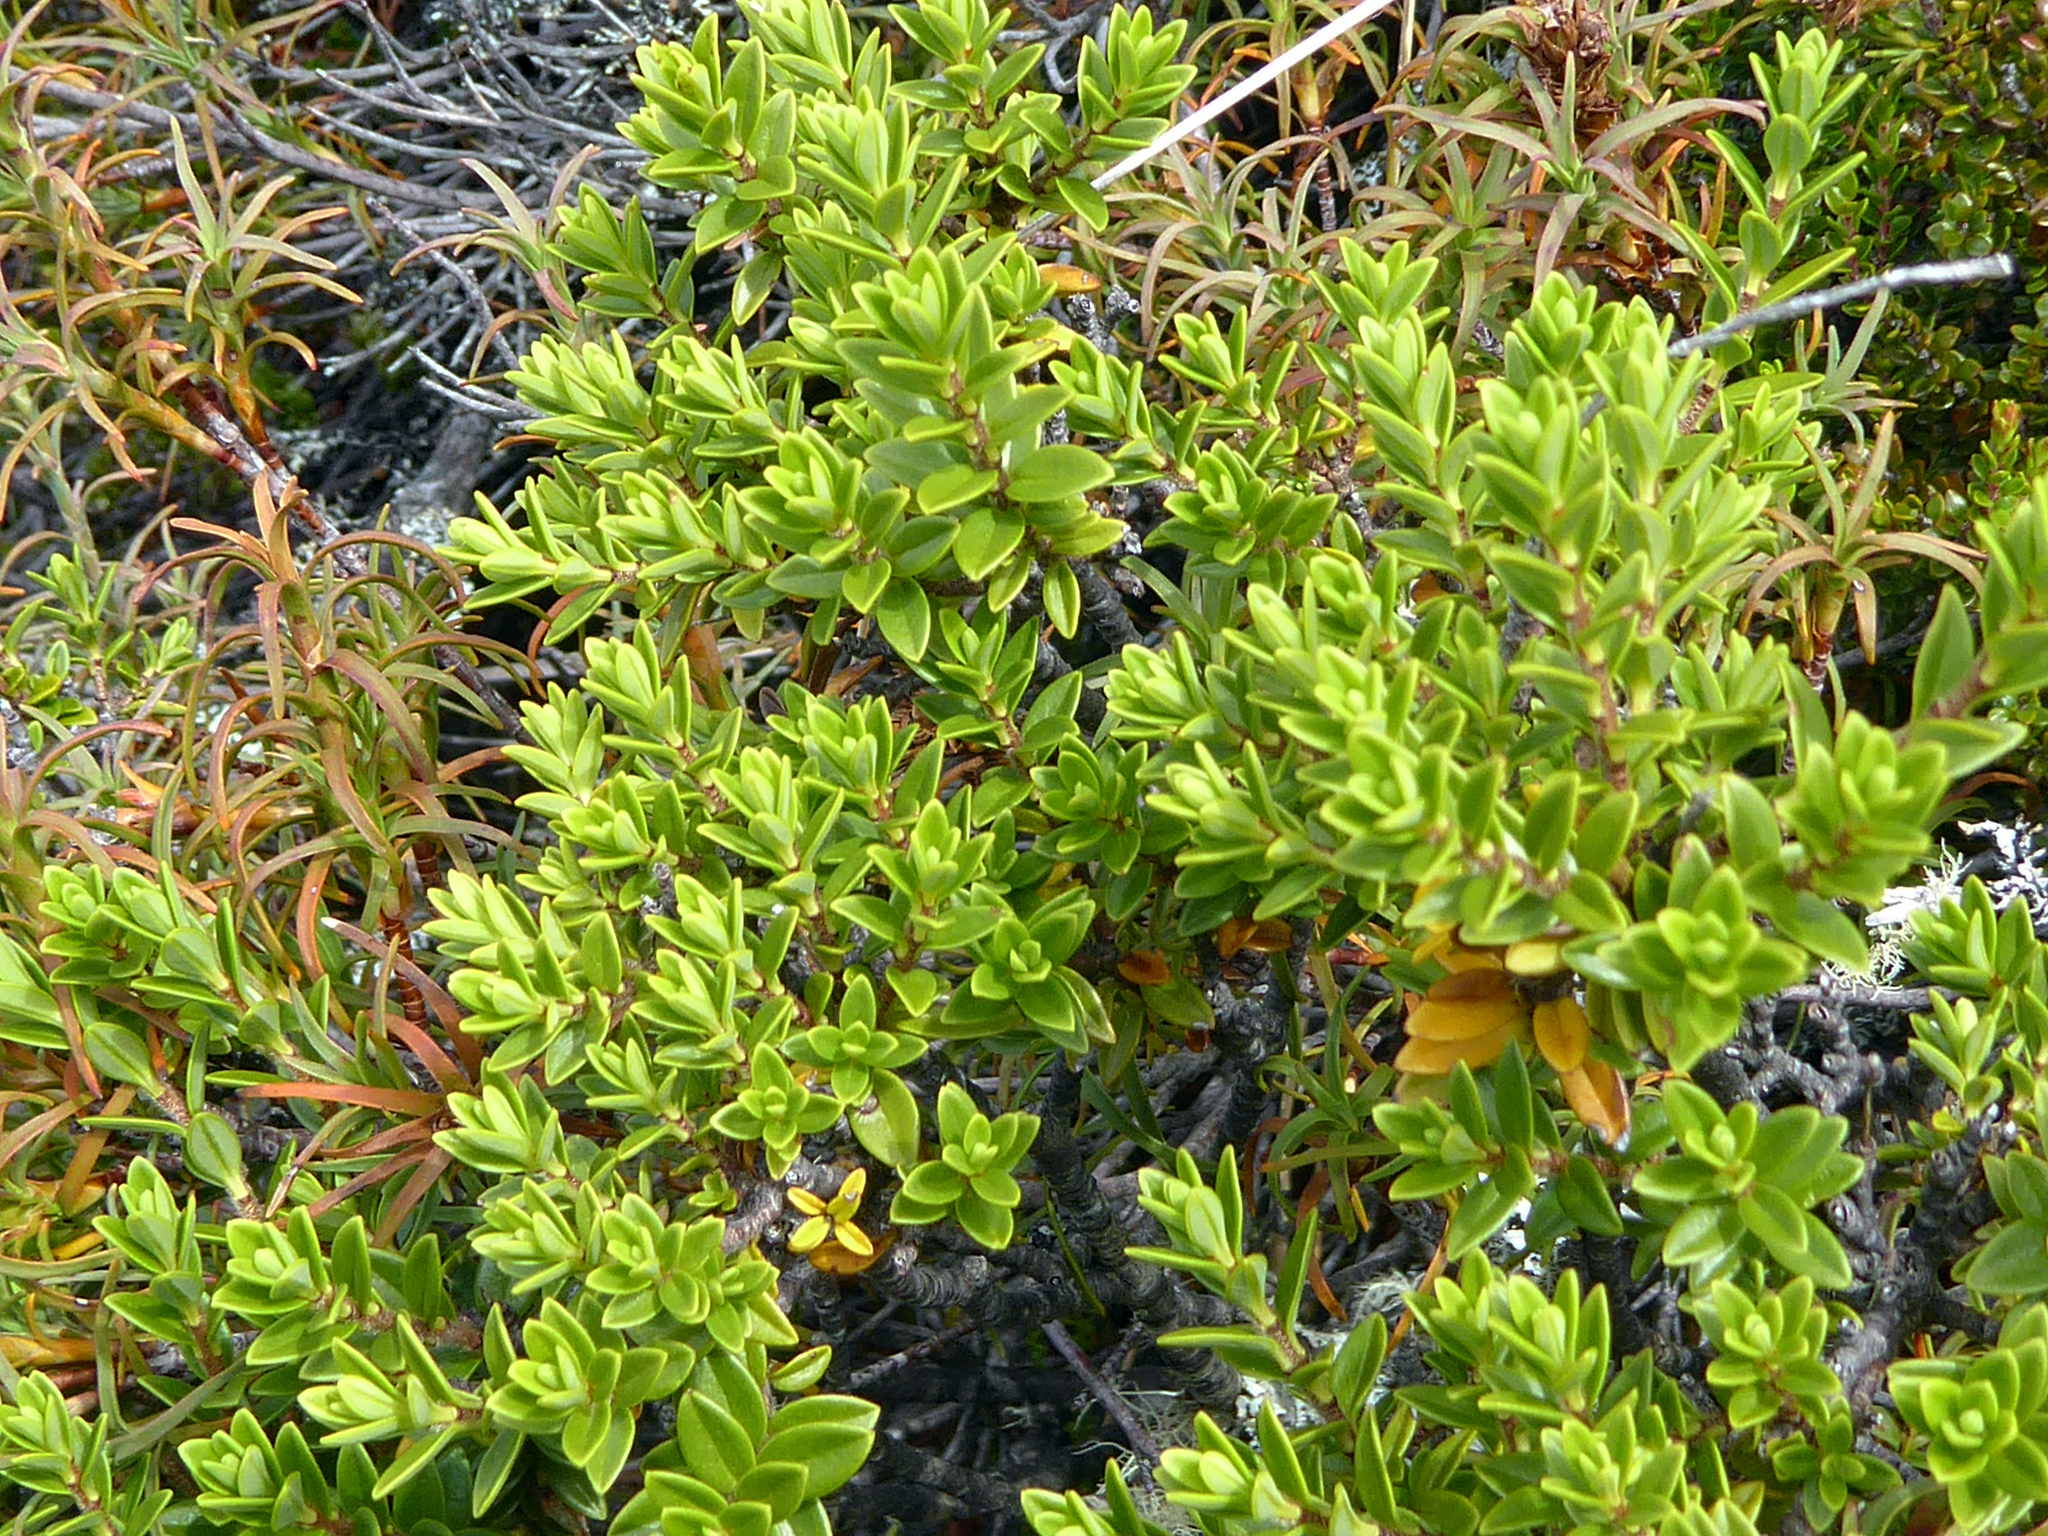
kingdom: Plantae
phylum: Tracheophyta
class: Magnoliopsida
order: Malvales
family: Thymelaeaceae
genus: Pimelea
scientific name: Pimelea buxifolia
